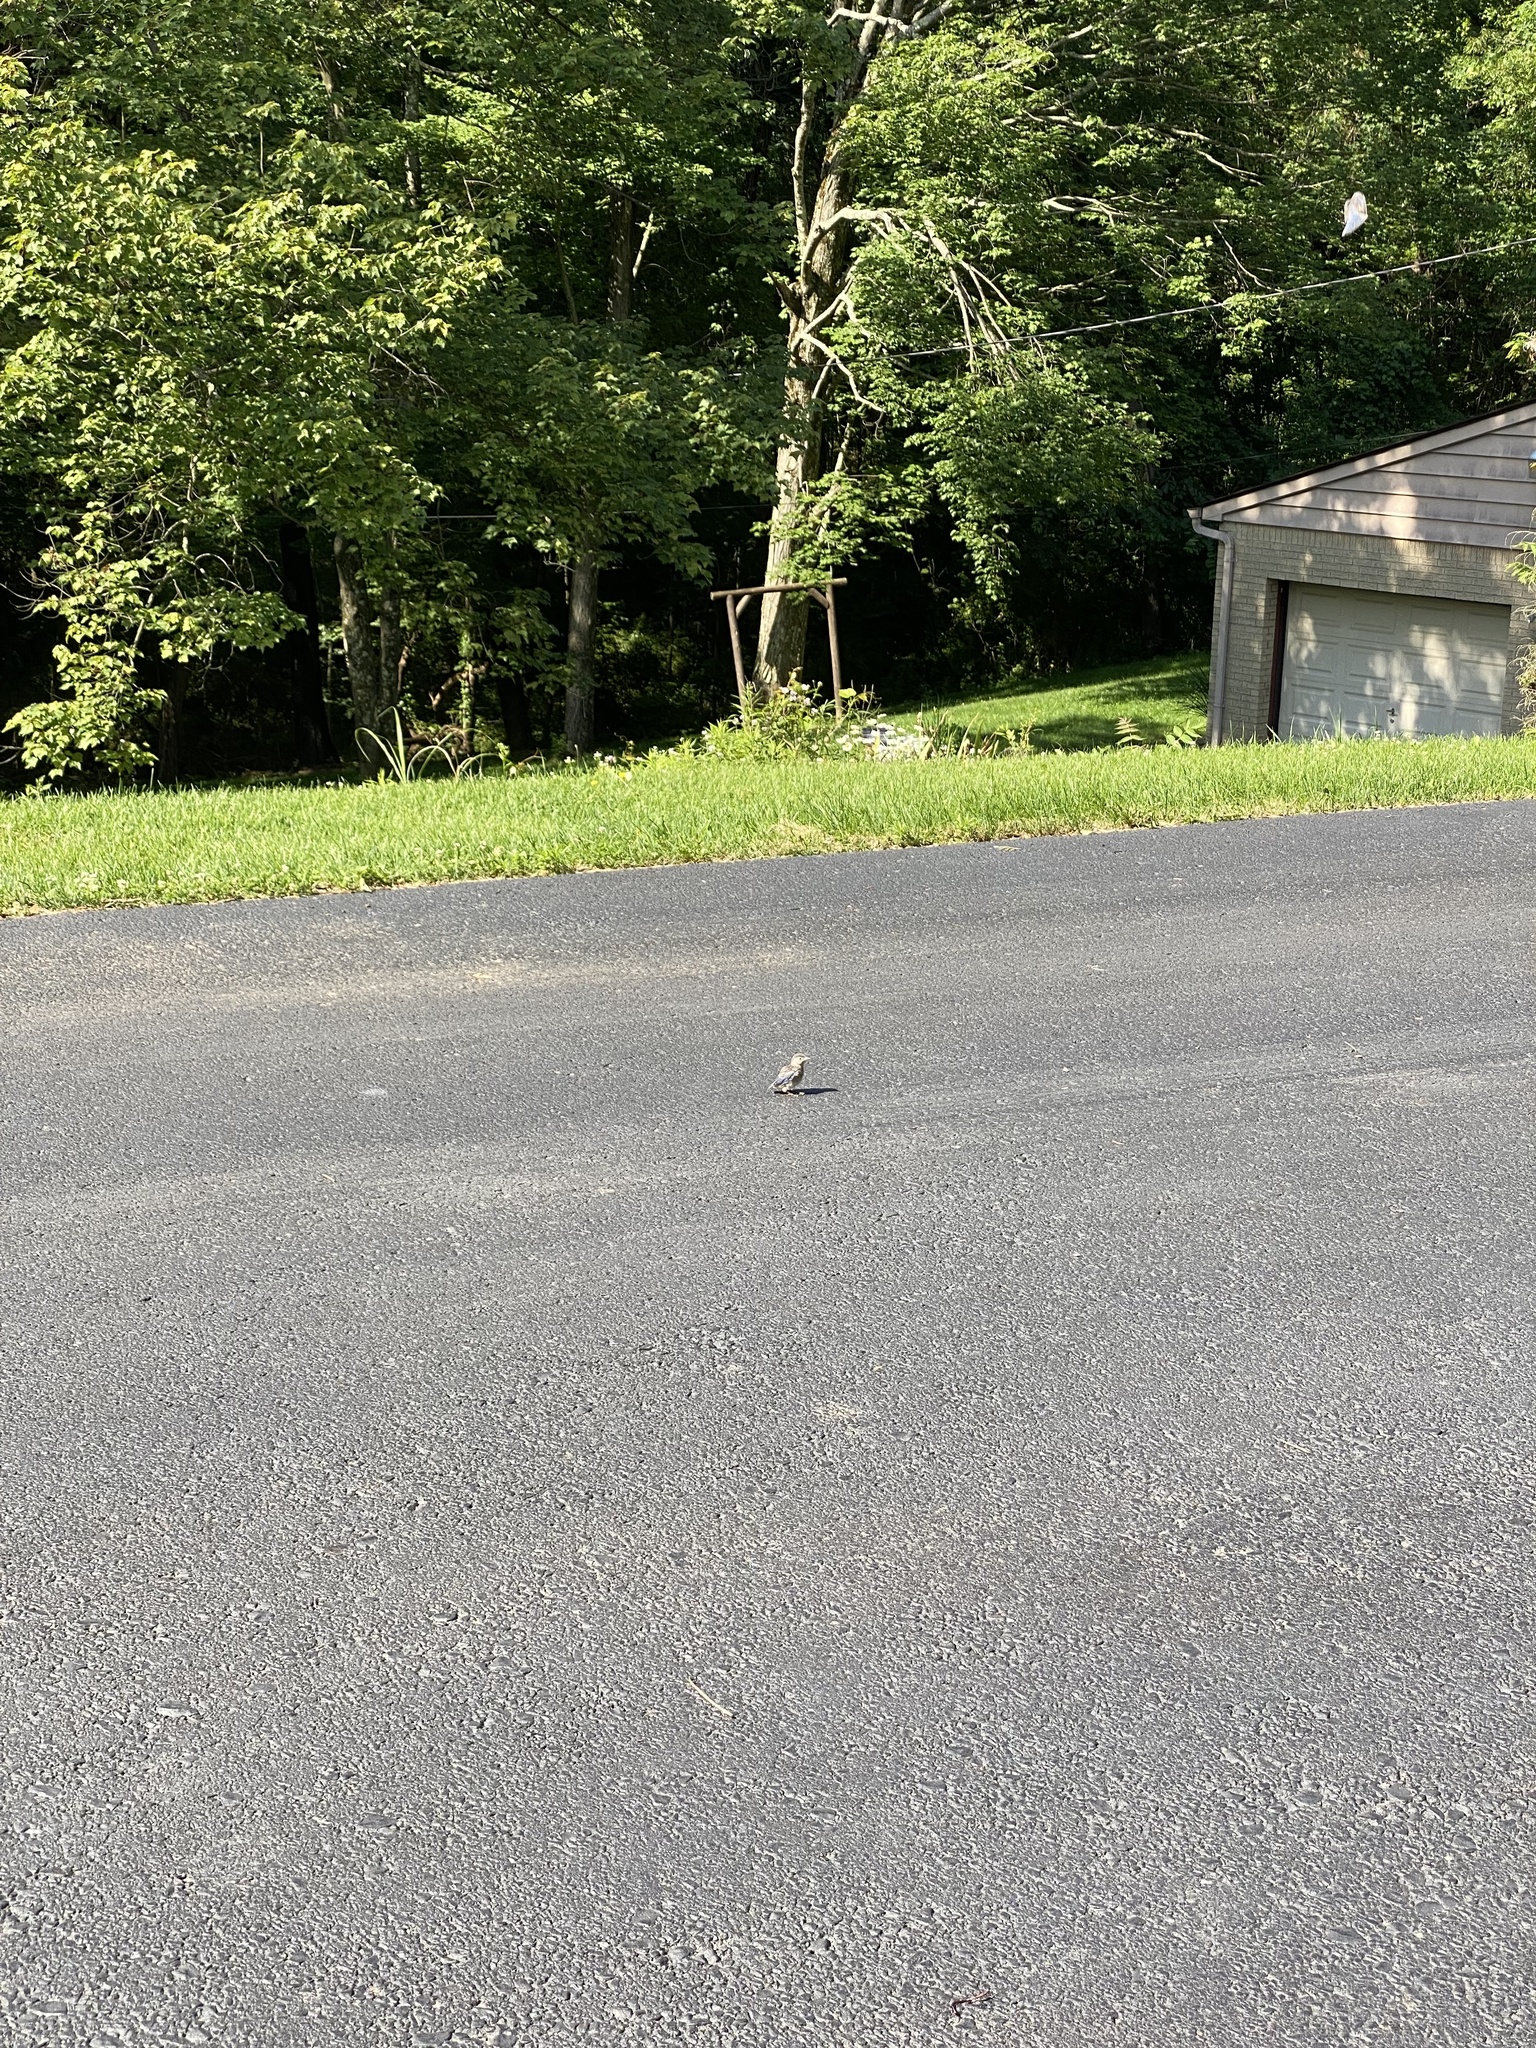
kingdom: Animalia
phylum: Chordata
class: Aves
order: Passeriformes
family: Turdidae
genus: Sialia
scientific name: Sialia sialis
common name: Eastern bluebird
